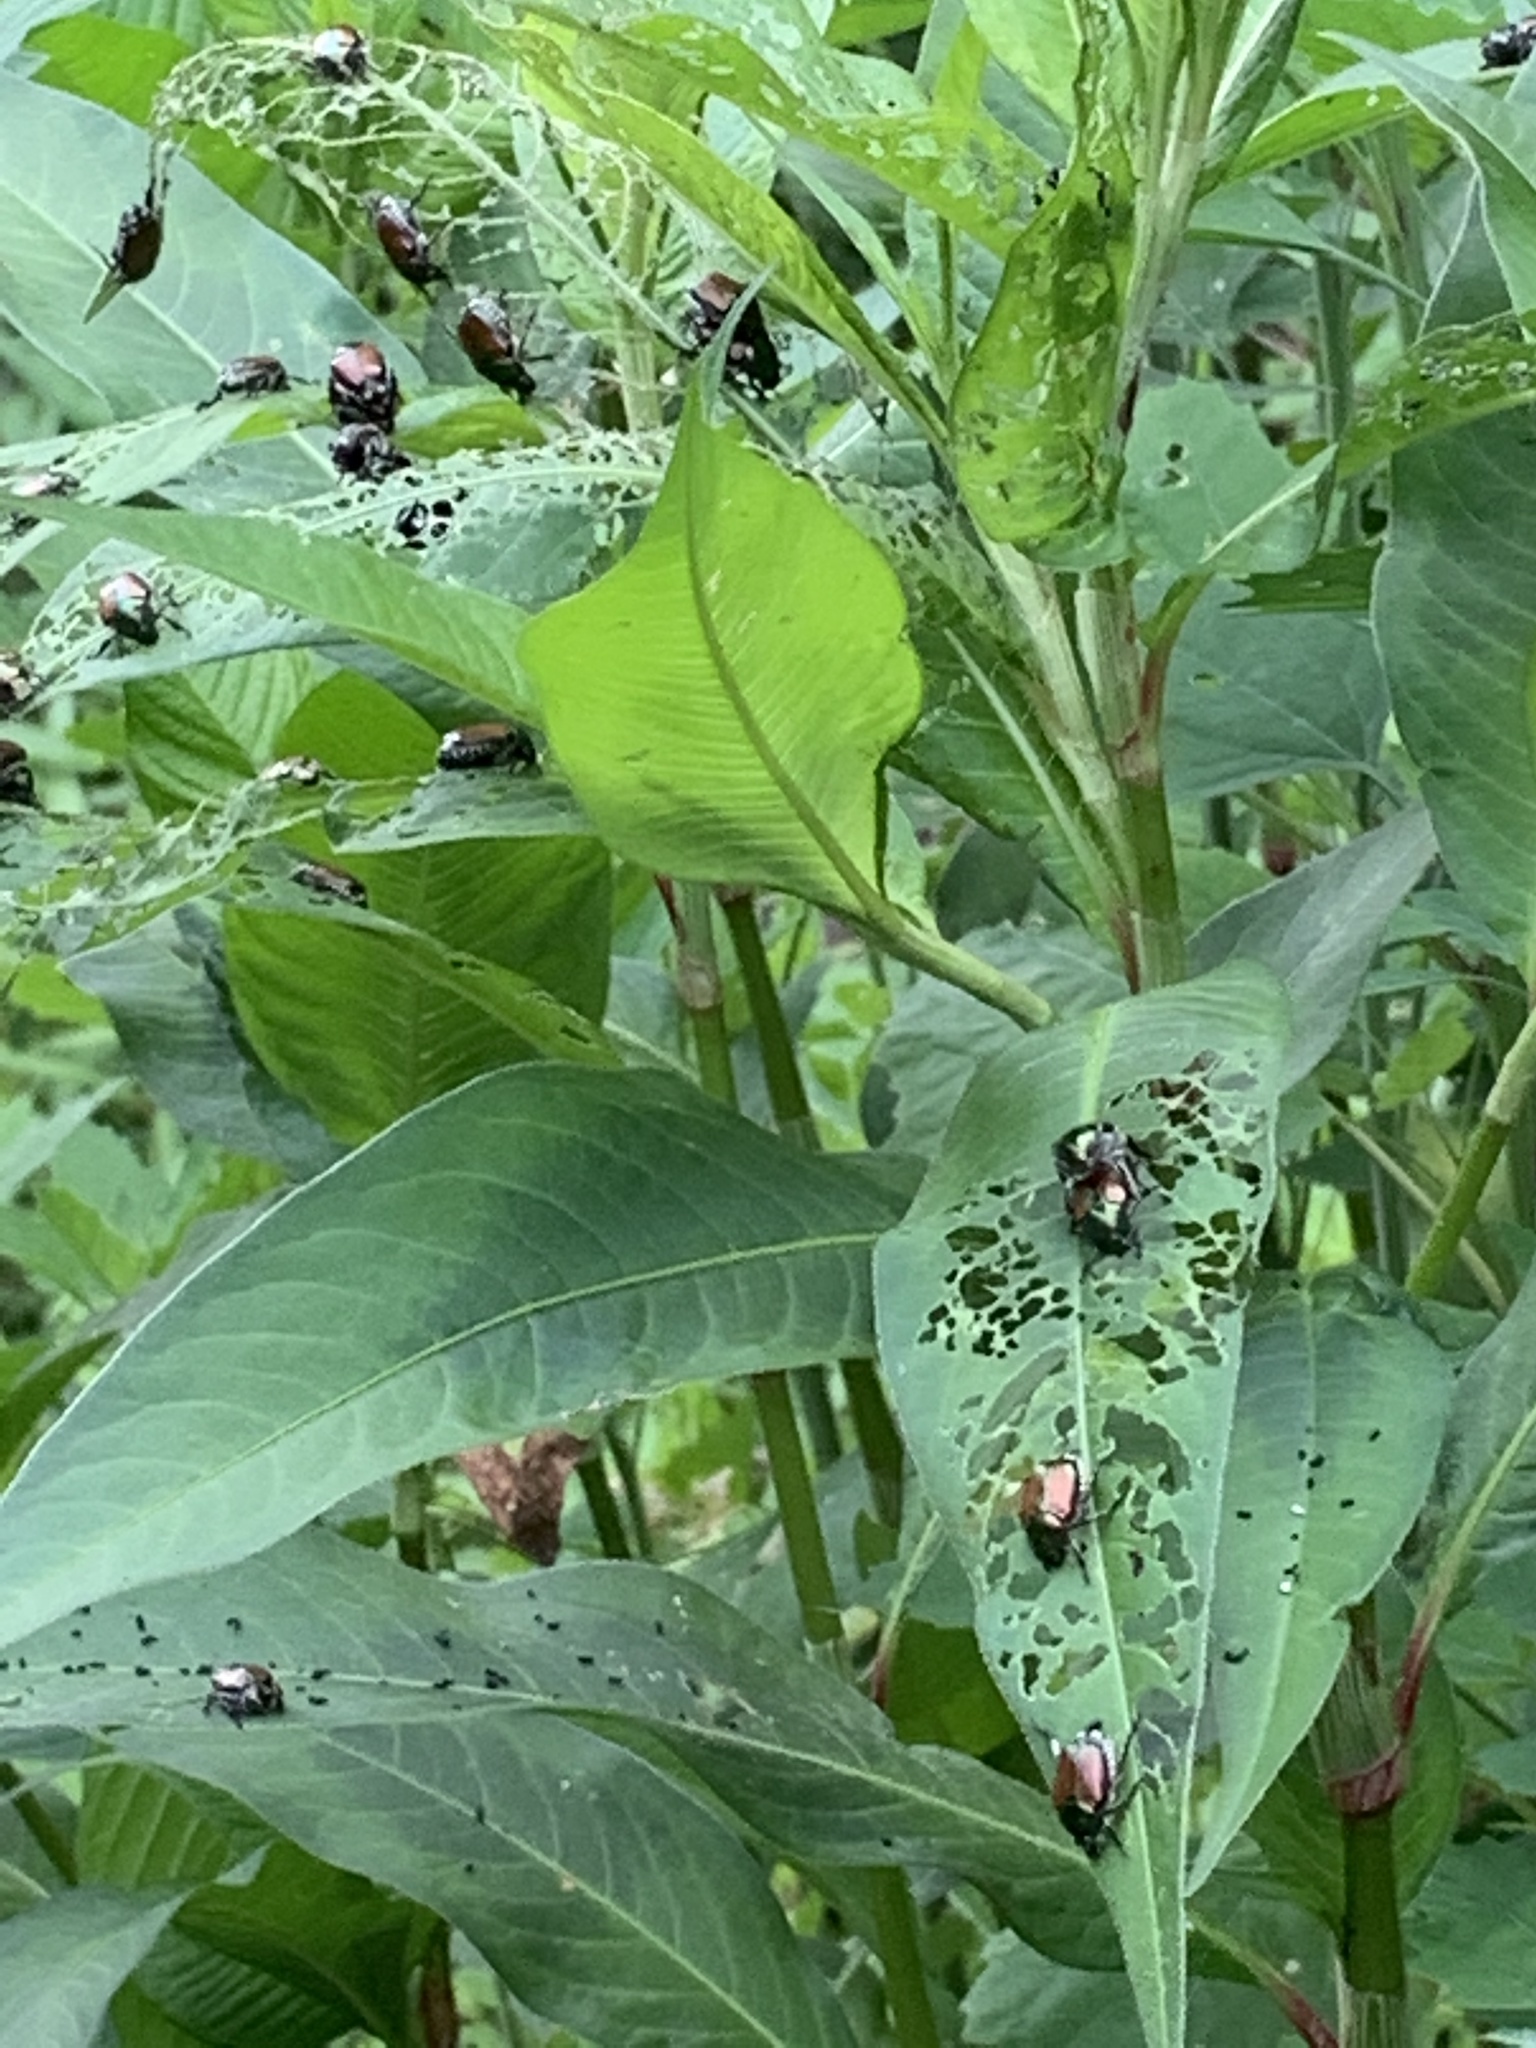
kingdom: Animalia
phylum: Arthropoda
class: Insecta
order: Coleoptera
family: Scarabaeidae
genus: Popillia
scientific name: Popillia japonica
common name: Japanese beetle
